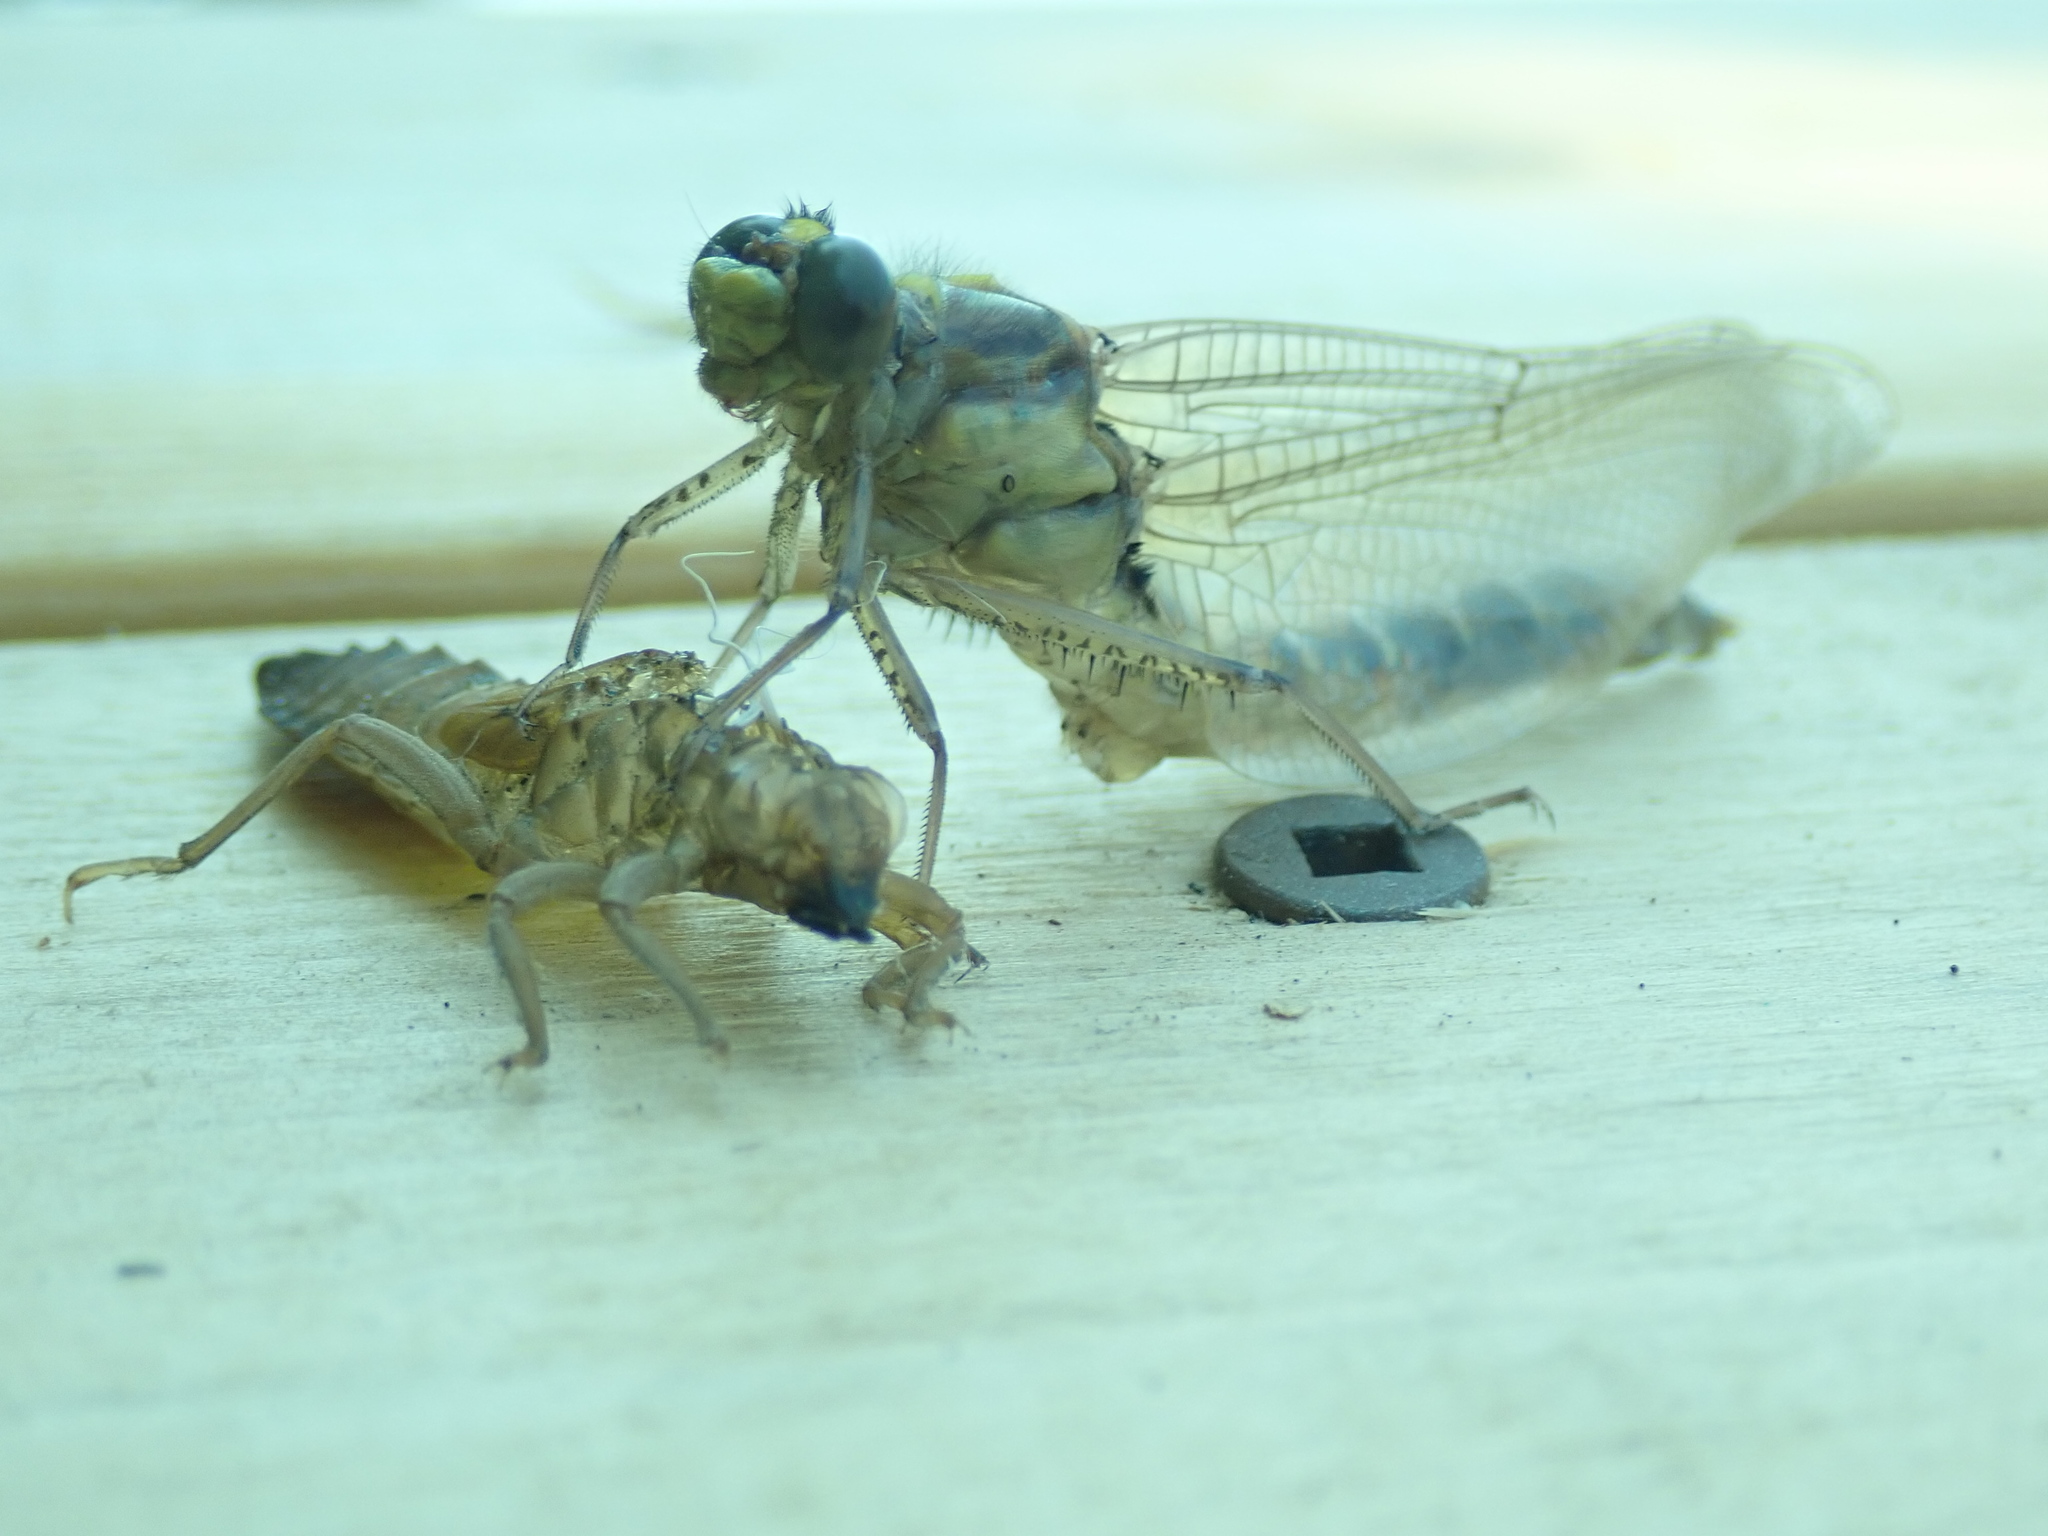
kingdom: Animalia
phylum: Arthropoda
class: Insecta
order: Odonata
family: Gomphidae
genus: Dromogomphus
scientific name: Dromogomphus spinosus
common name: Black-shouldered spinyleg
